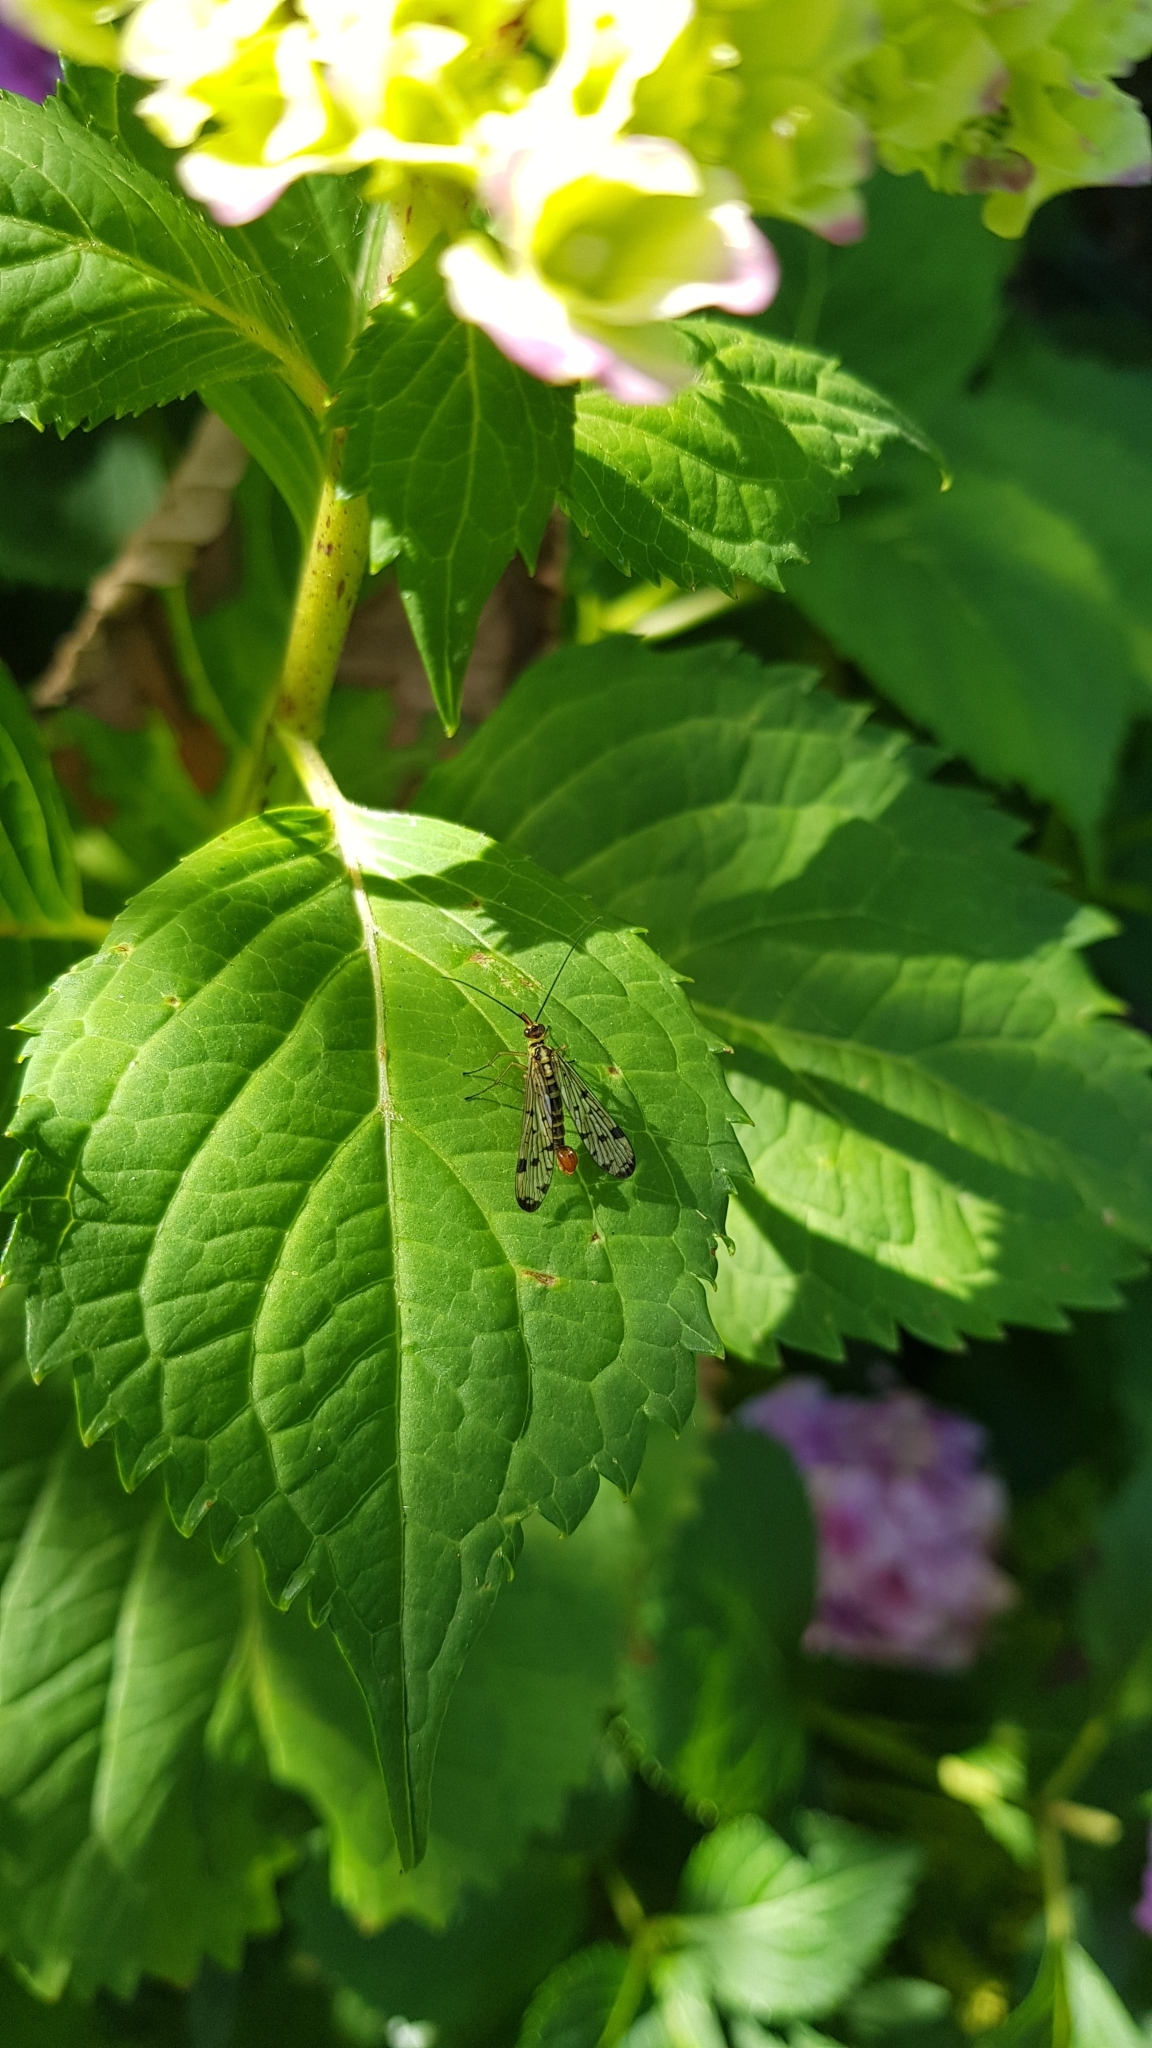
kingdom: Animalia
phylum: Arthropoda
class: Insecta
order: Mecoptera
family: Panorpidae
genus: Panorpa
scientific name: Panorpa germanica
